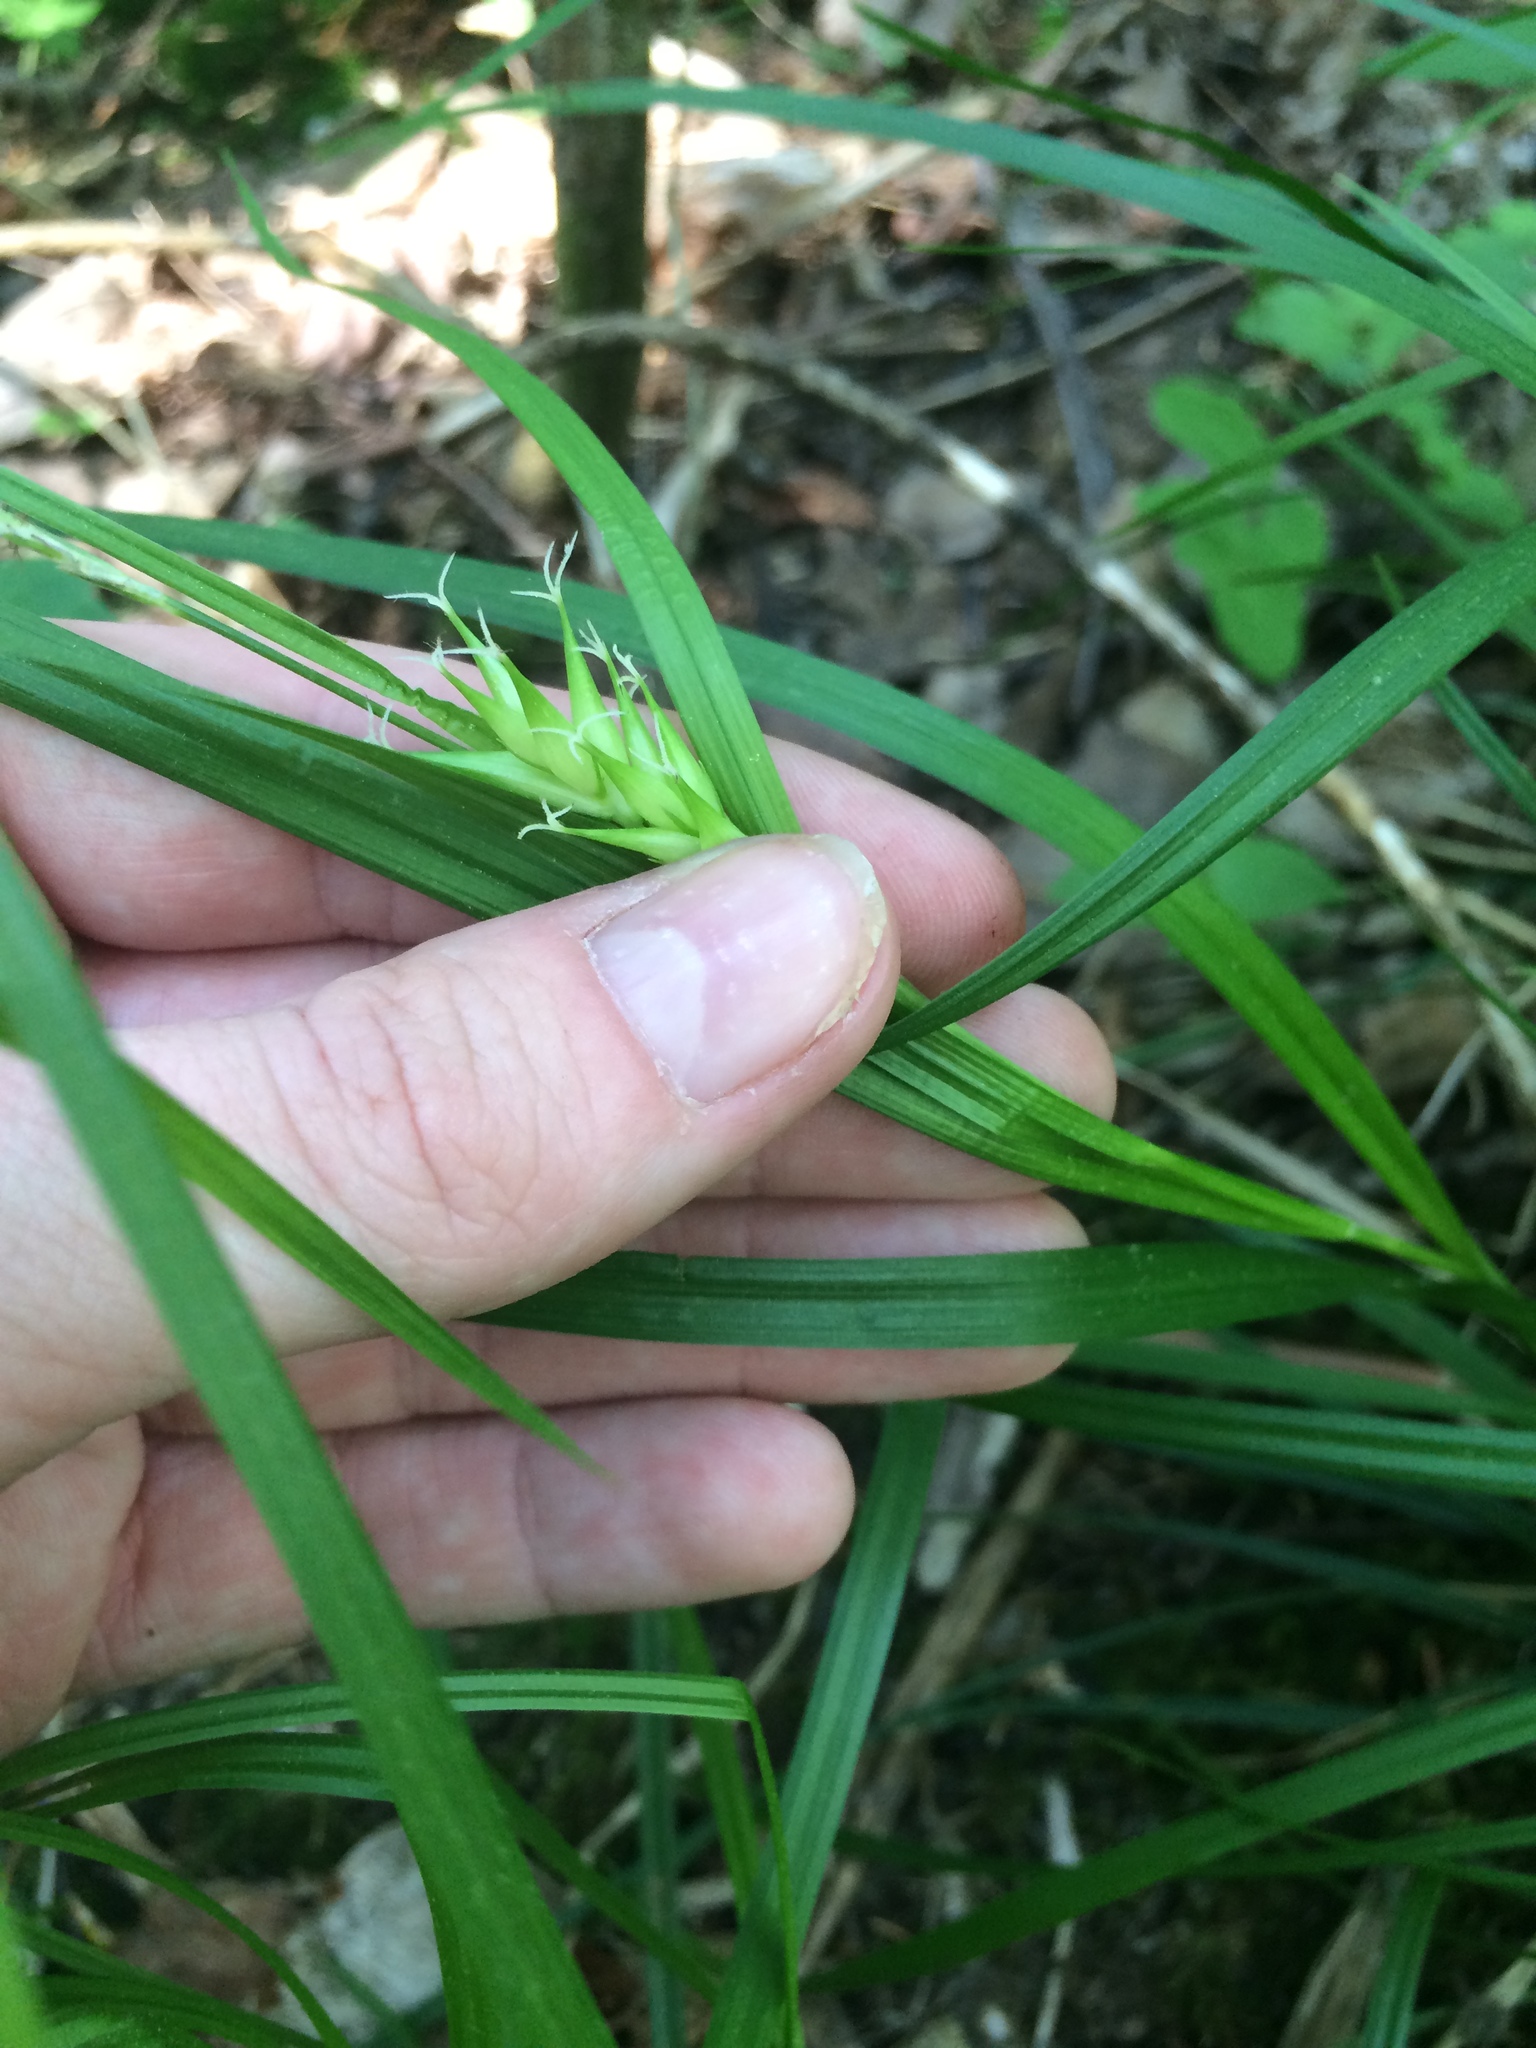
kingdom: Plantae
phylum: Tracheophyta
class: Liliopsida
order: Poales
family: Cyperaceae
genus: Carex
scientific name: Carex intumescens
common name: Greater bladder sedge
